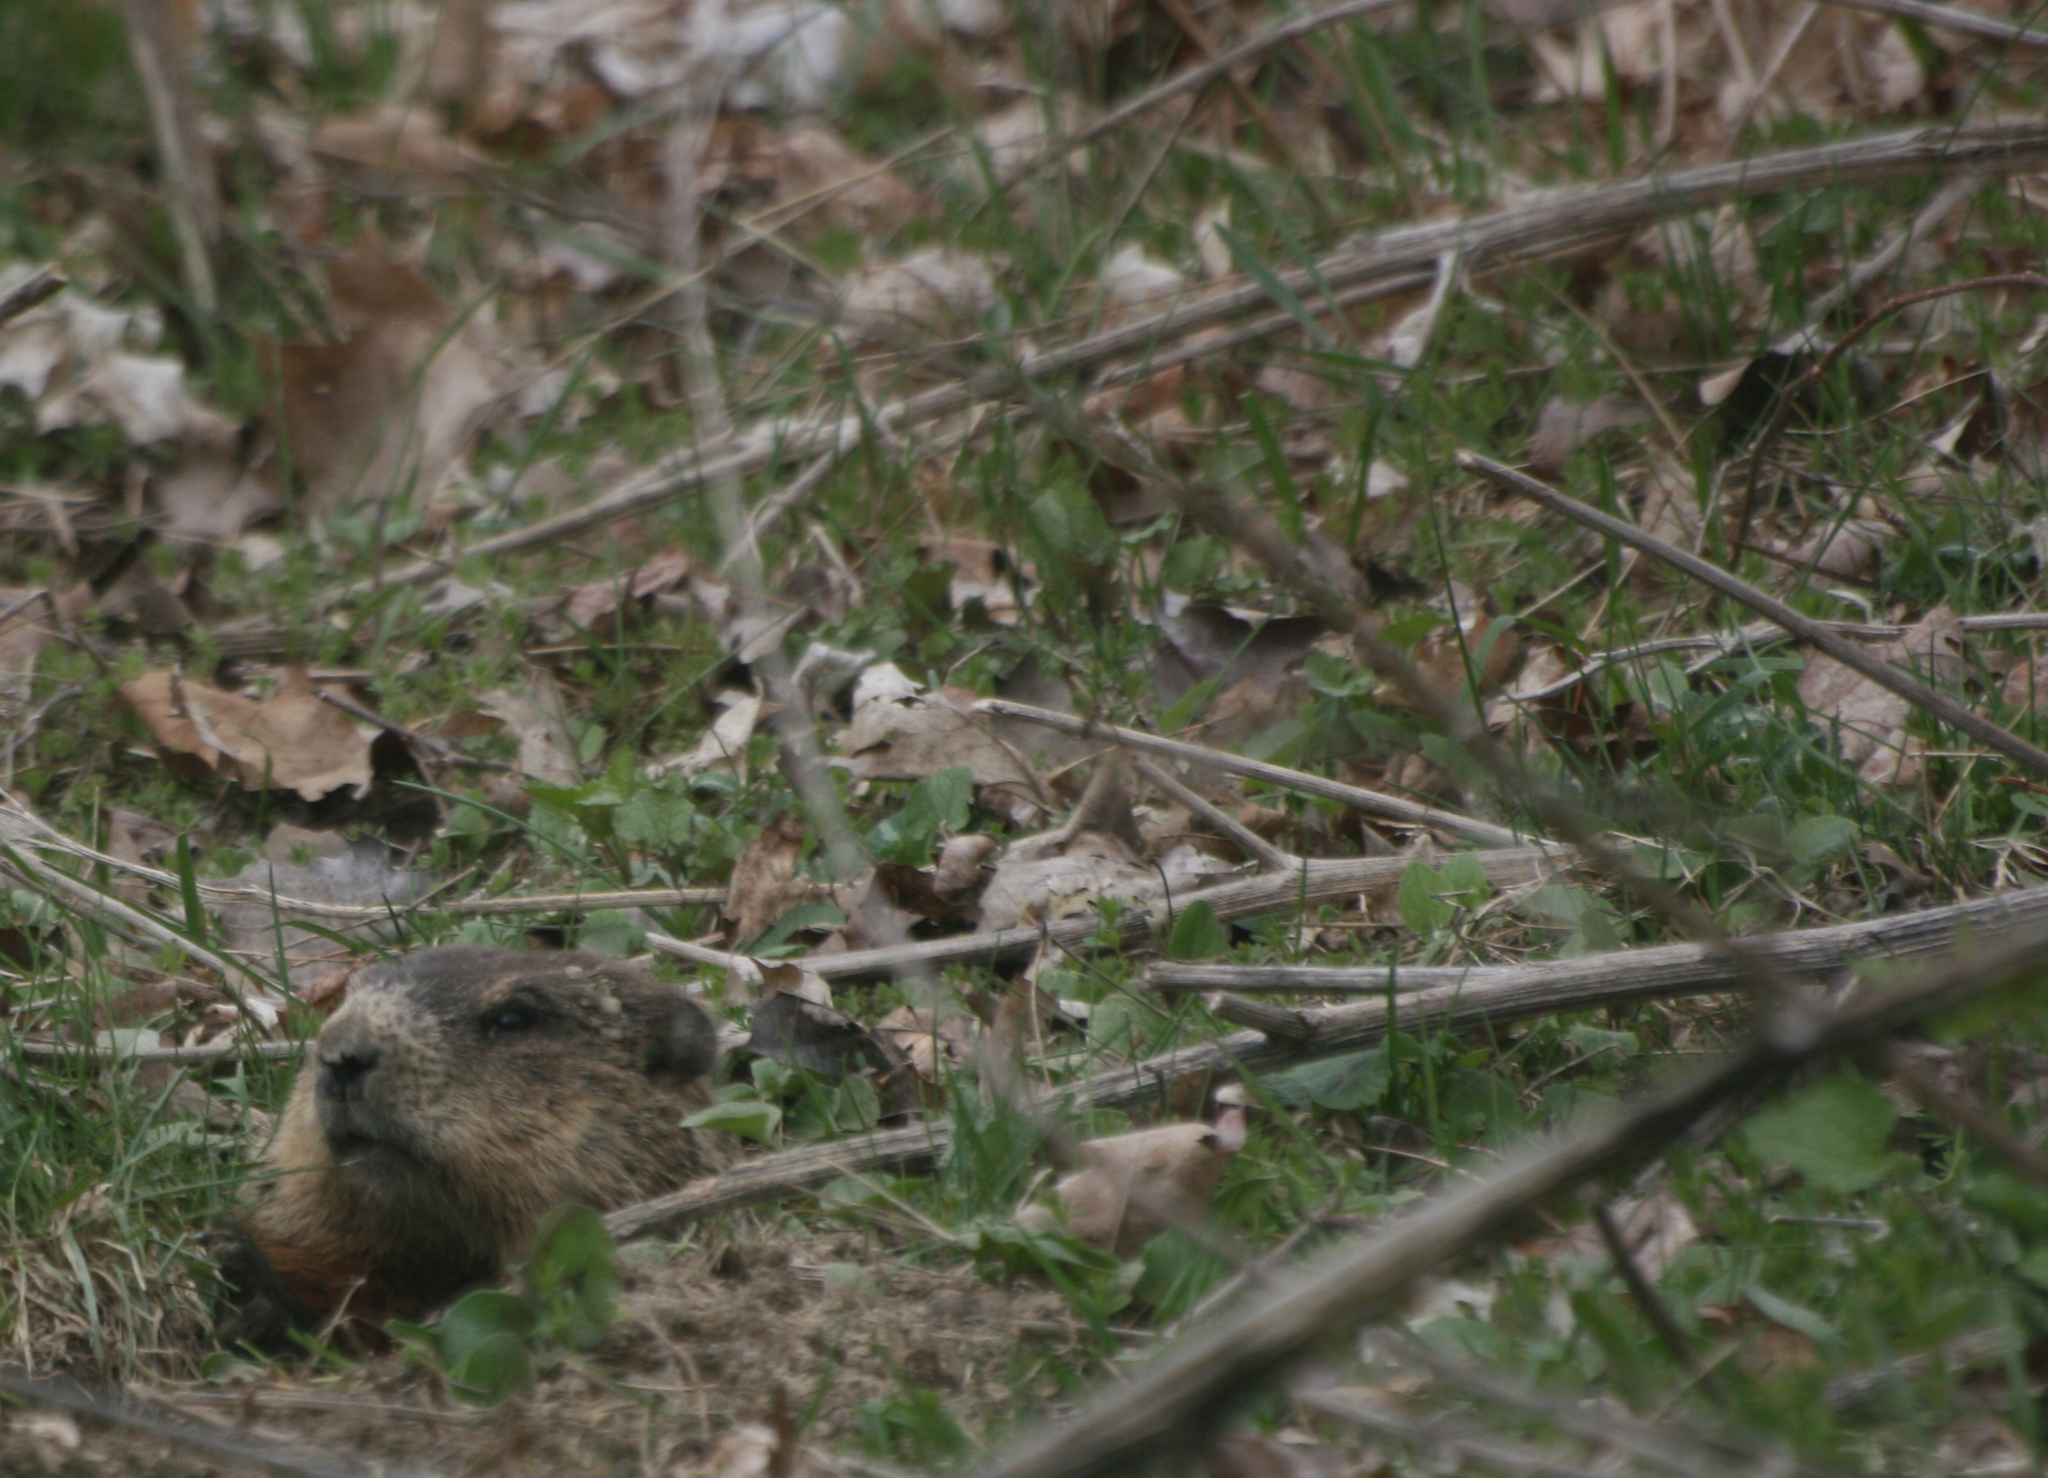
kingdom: Animalia
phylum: Chordata
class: Mammalia
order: Rodentia
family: Sciuridae
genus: Marmota
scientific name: Marmota monax
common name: Groundhog
